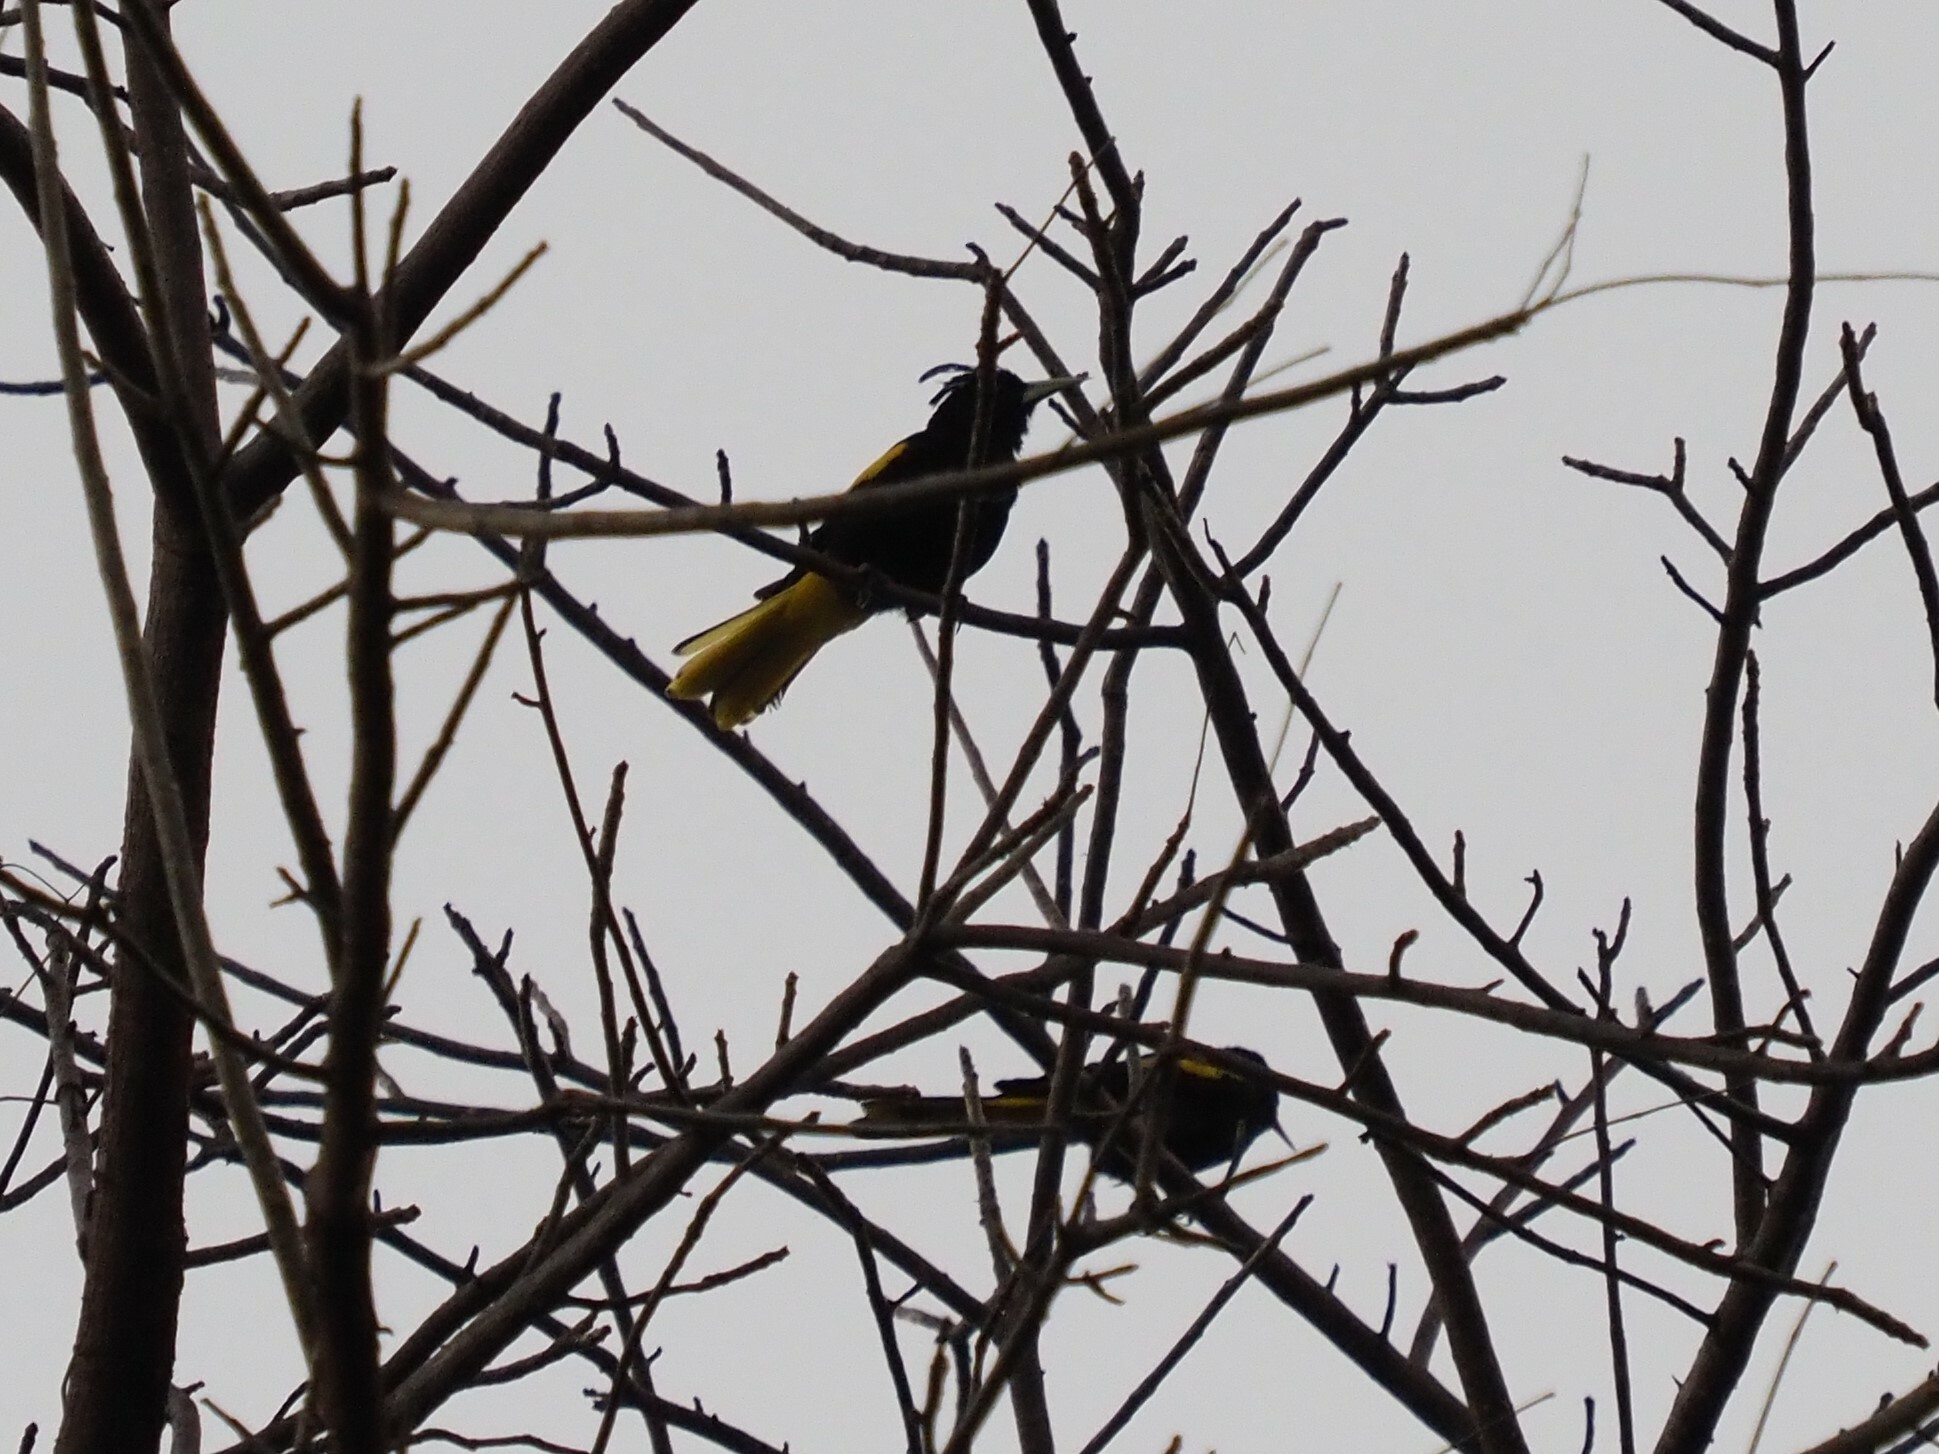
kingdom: Animalia
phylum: Chordata
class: Aves
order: Passeriformes
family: Icteridae
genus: Cacicus
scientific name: Cacicus melanicterus
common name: Yellow-winged cacique
